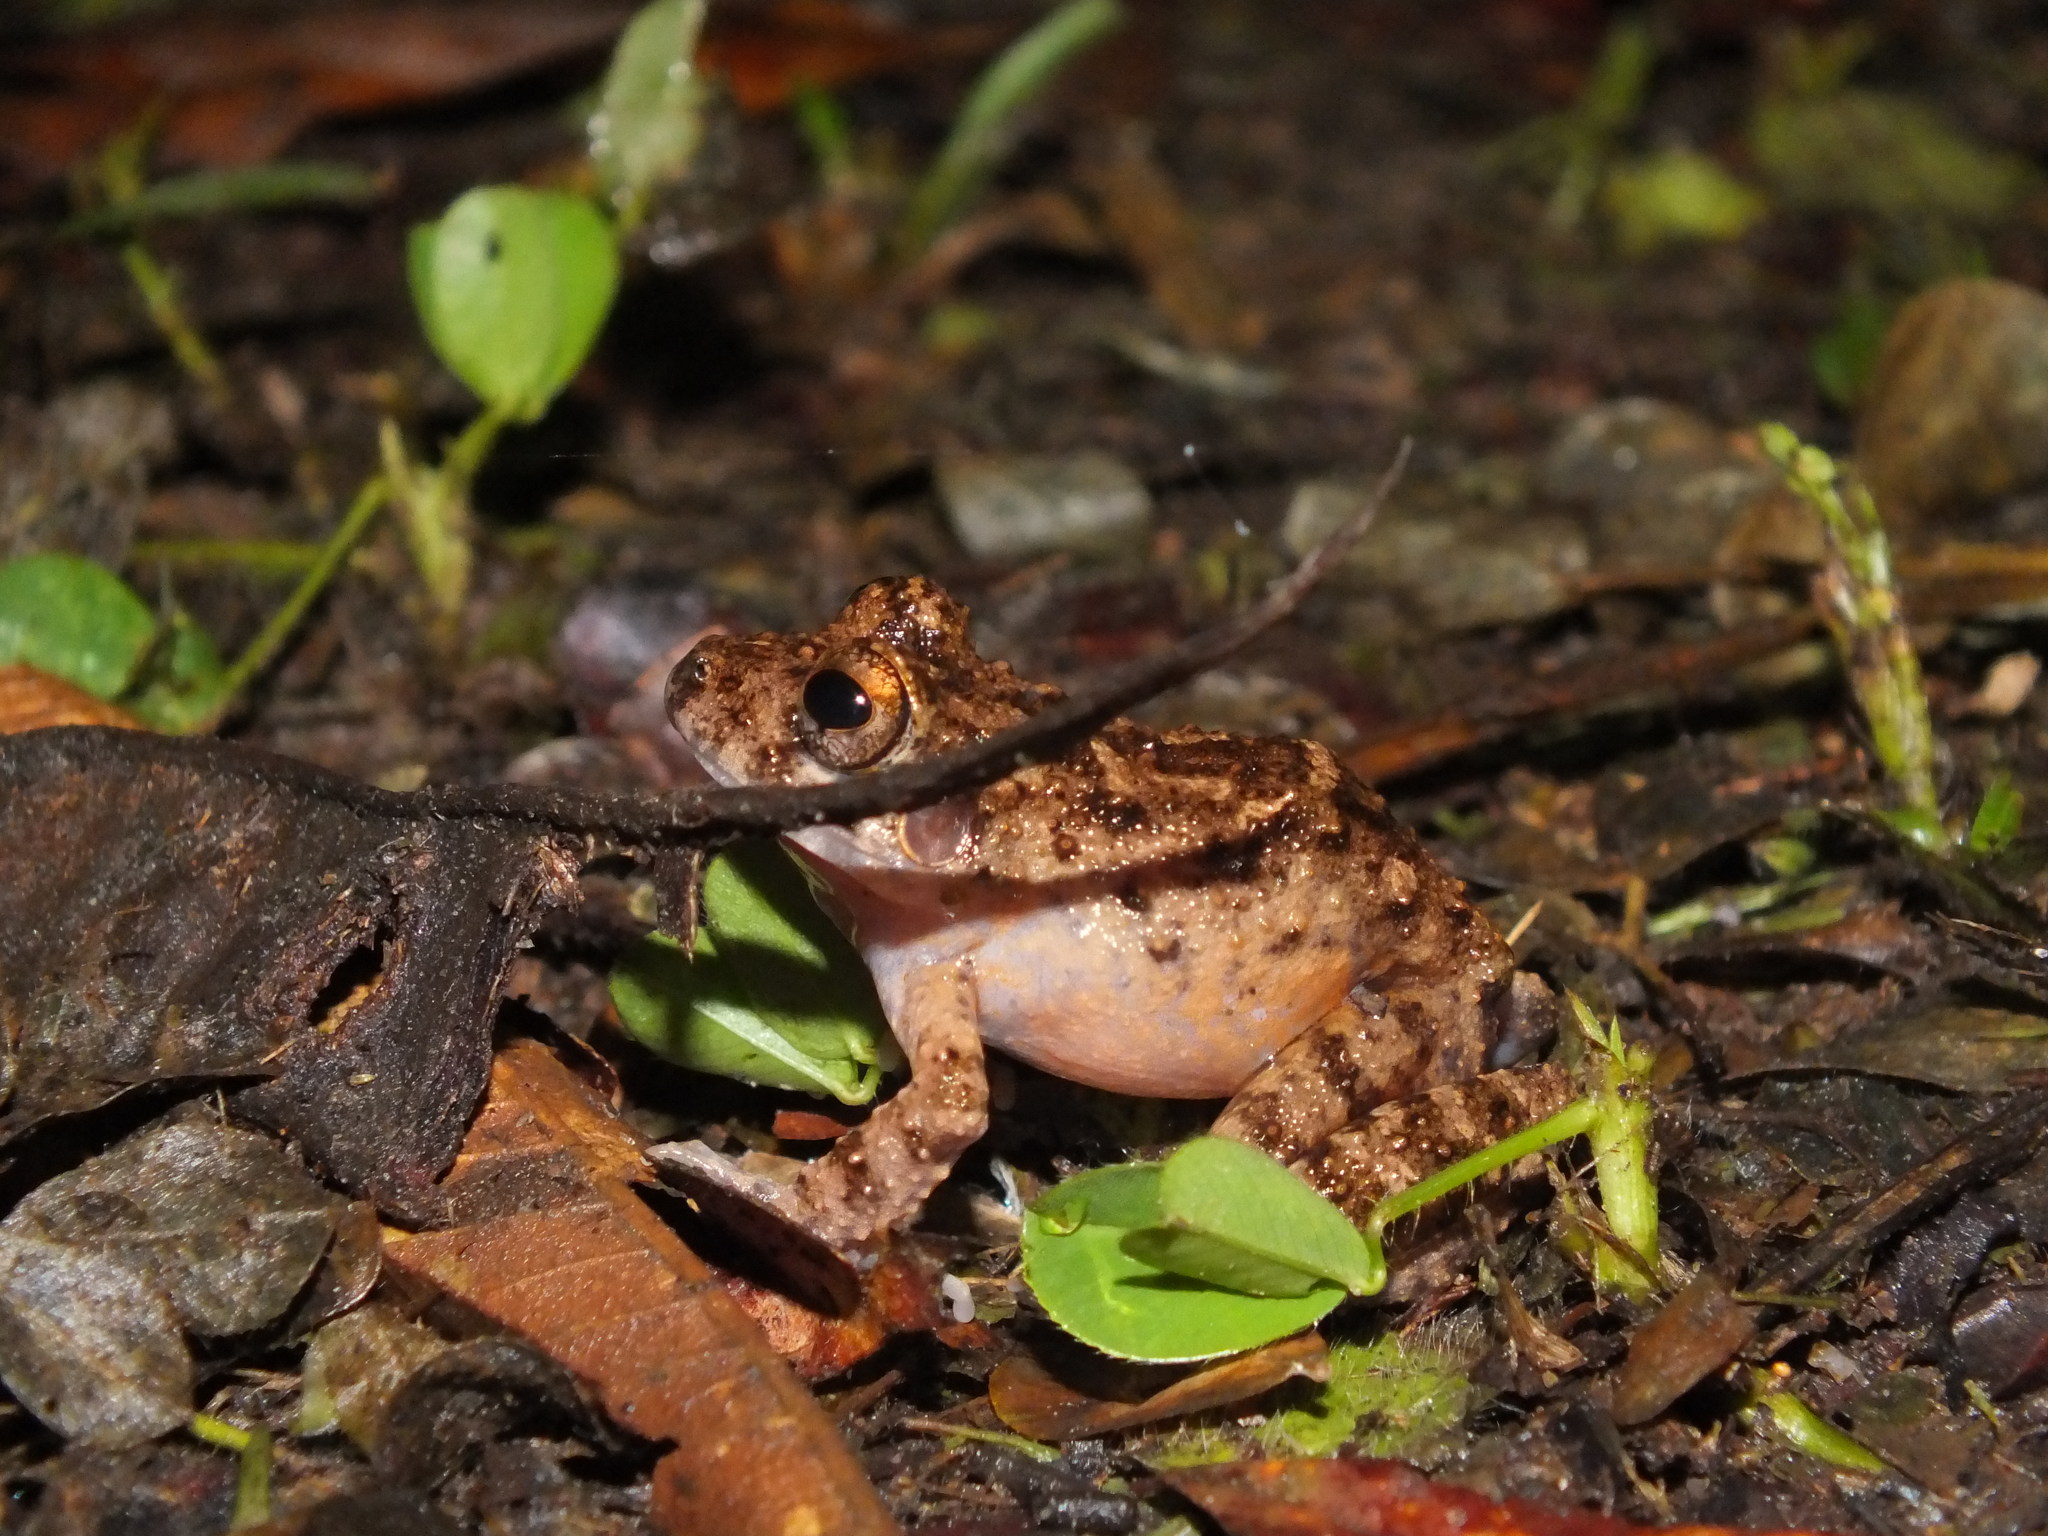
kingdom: Animalia
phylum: Chordata
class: Amphibia
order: Anura
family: Craugastoridae
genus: Oreobates
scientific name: Oreobates quixensis
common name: Common big-headed frog
